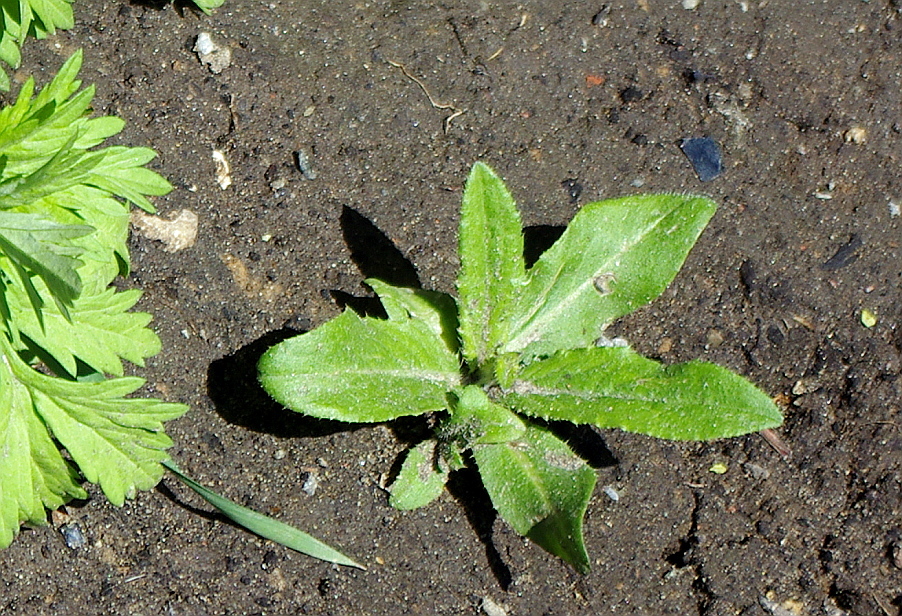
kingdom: Plantae
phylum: Tracheophyta
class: Magnoliopsida
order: Asterales
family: Asteraceae
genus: Cirsium
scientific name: Cirsium arvense
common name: Creeping thistle
